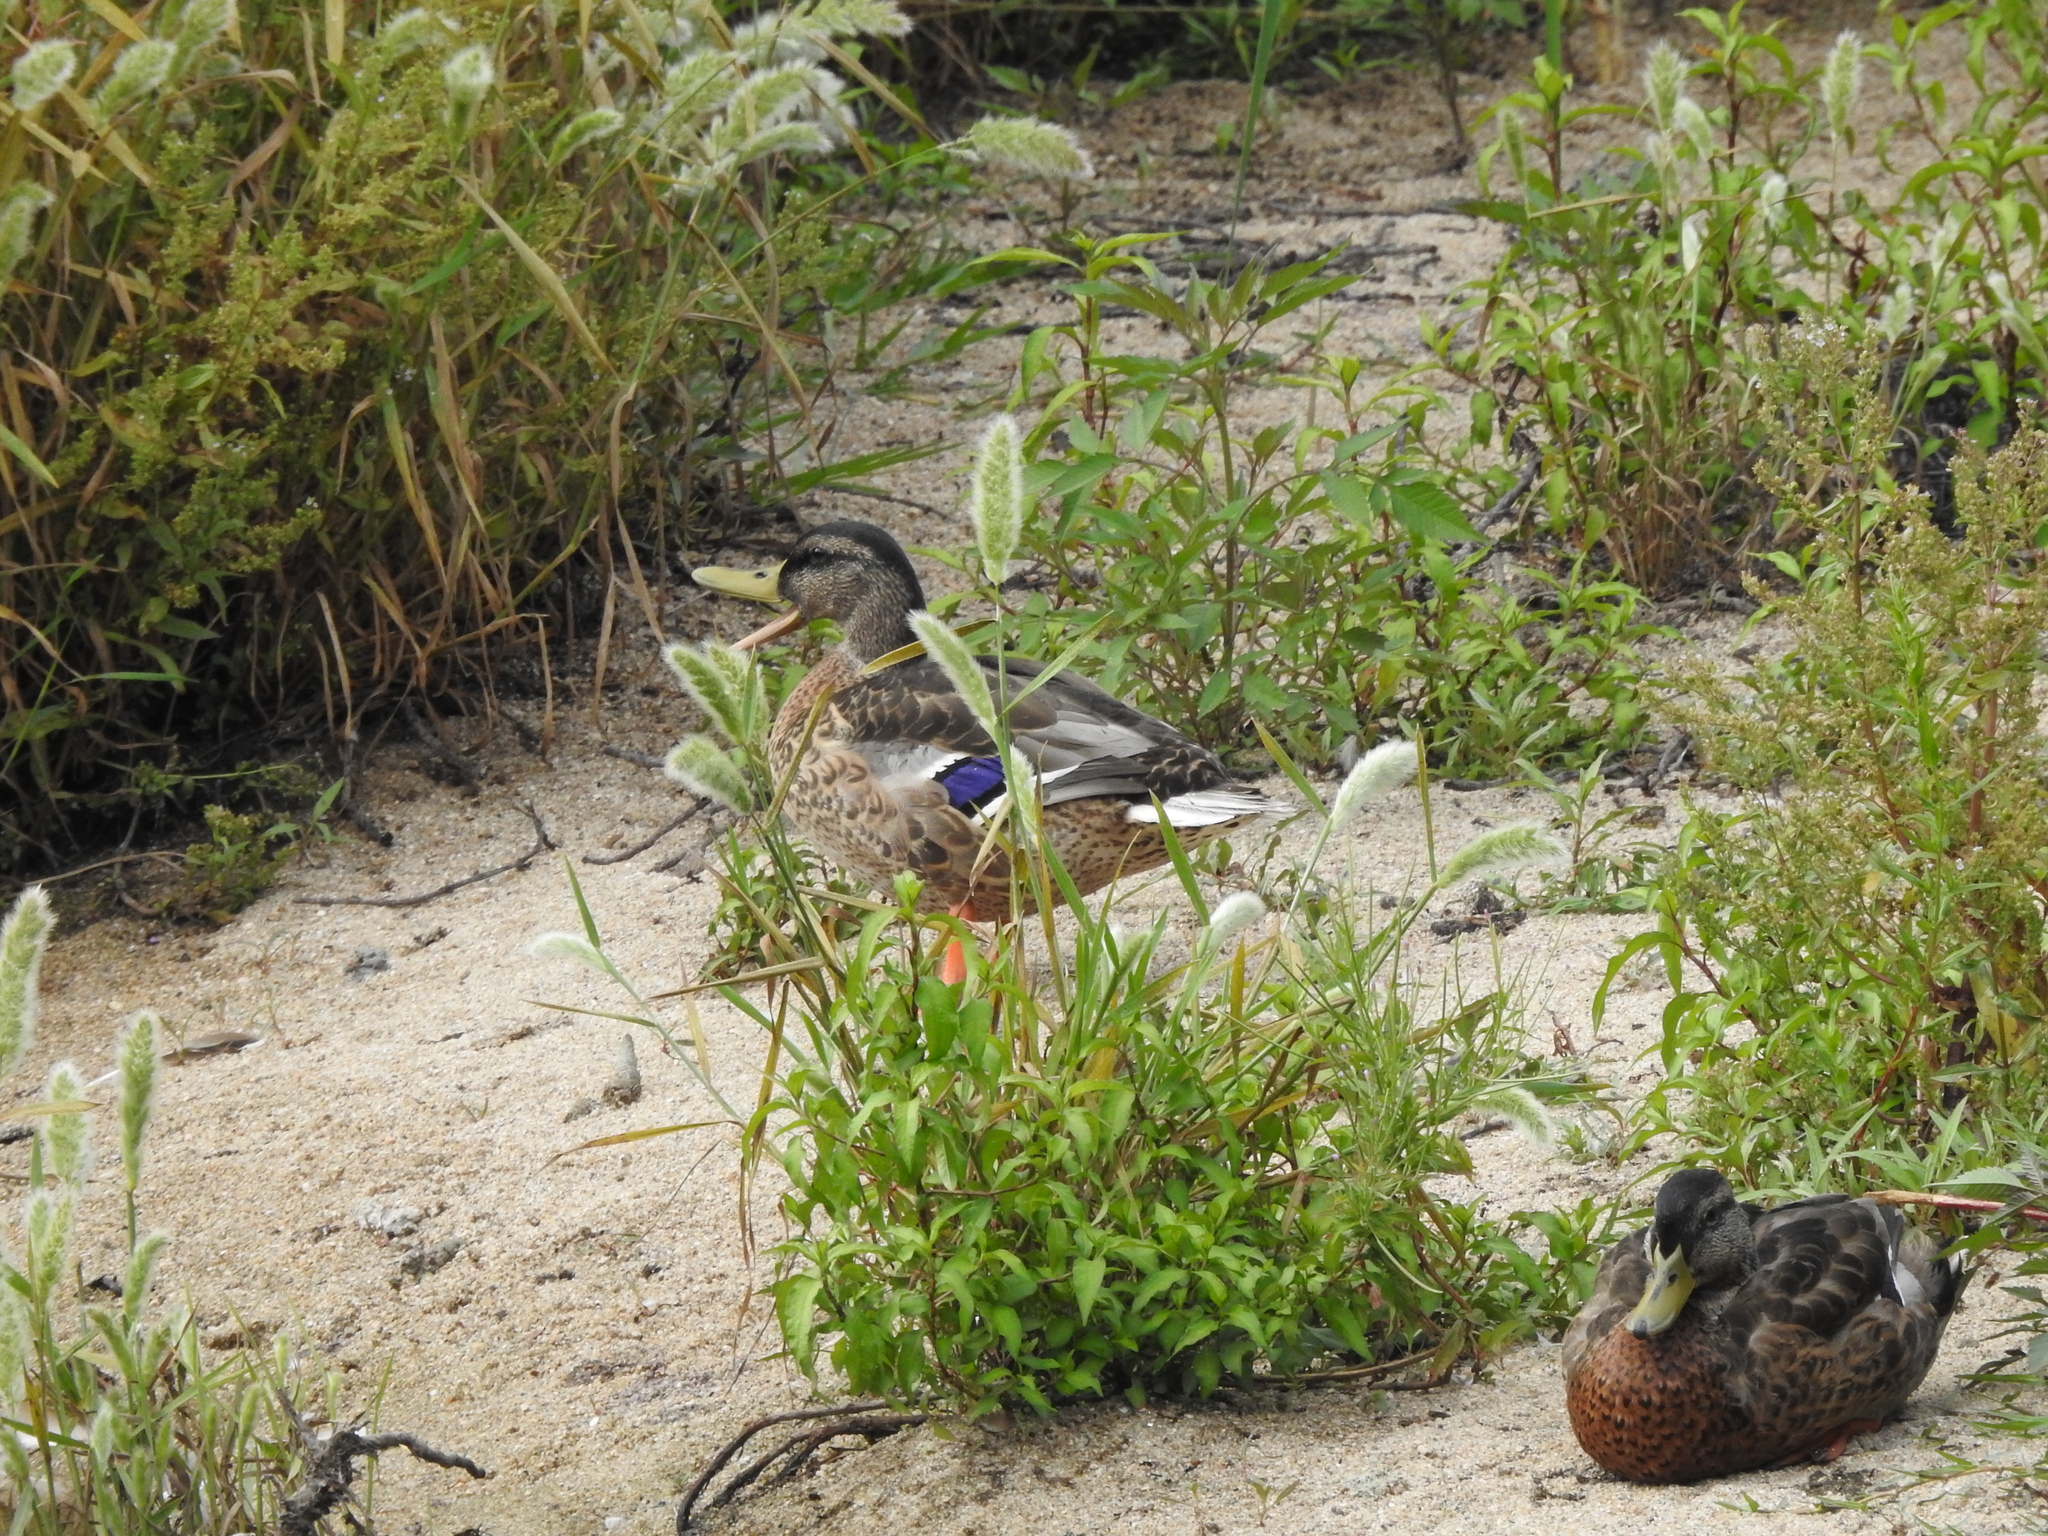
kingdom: Animalia
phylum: Chordata
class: Aves
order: Anseriformes
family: Anatidae
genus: Anas
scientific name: Anas platyrhynchos
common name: Mallard
